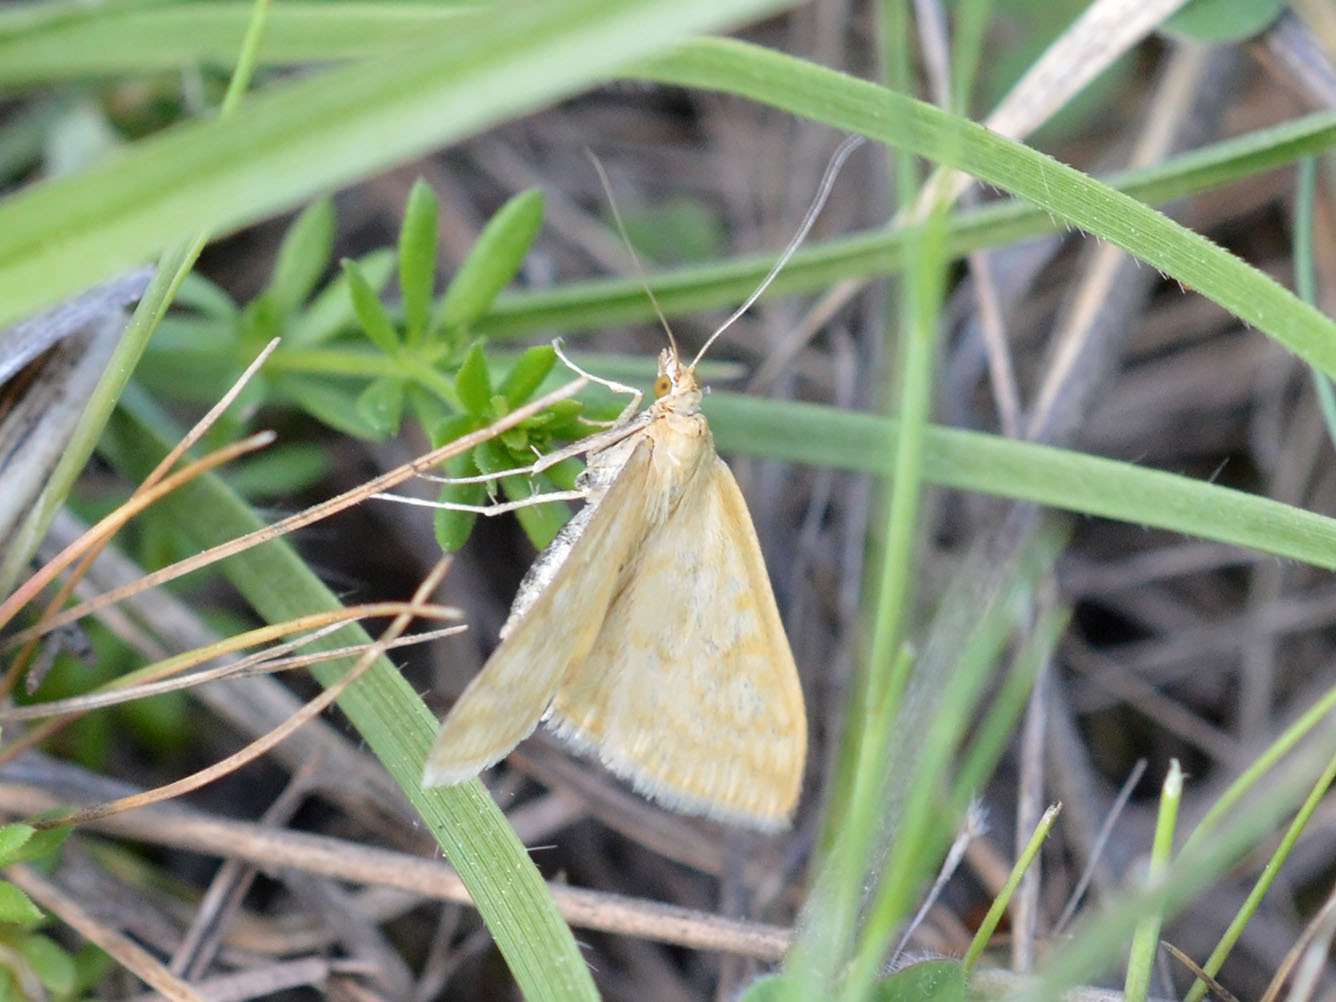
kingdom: Animalia
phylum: Arthropoda
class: Insecta
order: Lepidoptera
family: Crambidae
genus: Sitochroa
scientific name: Sitochroa verticalis
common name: Lesser pearl
